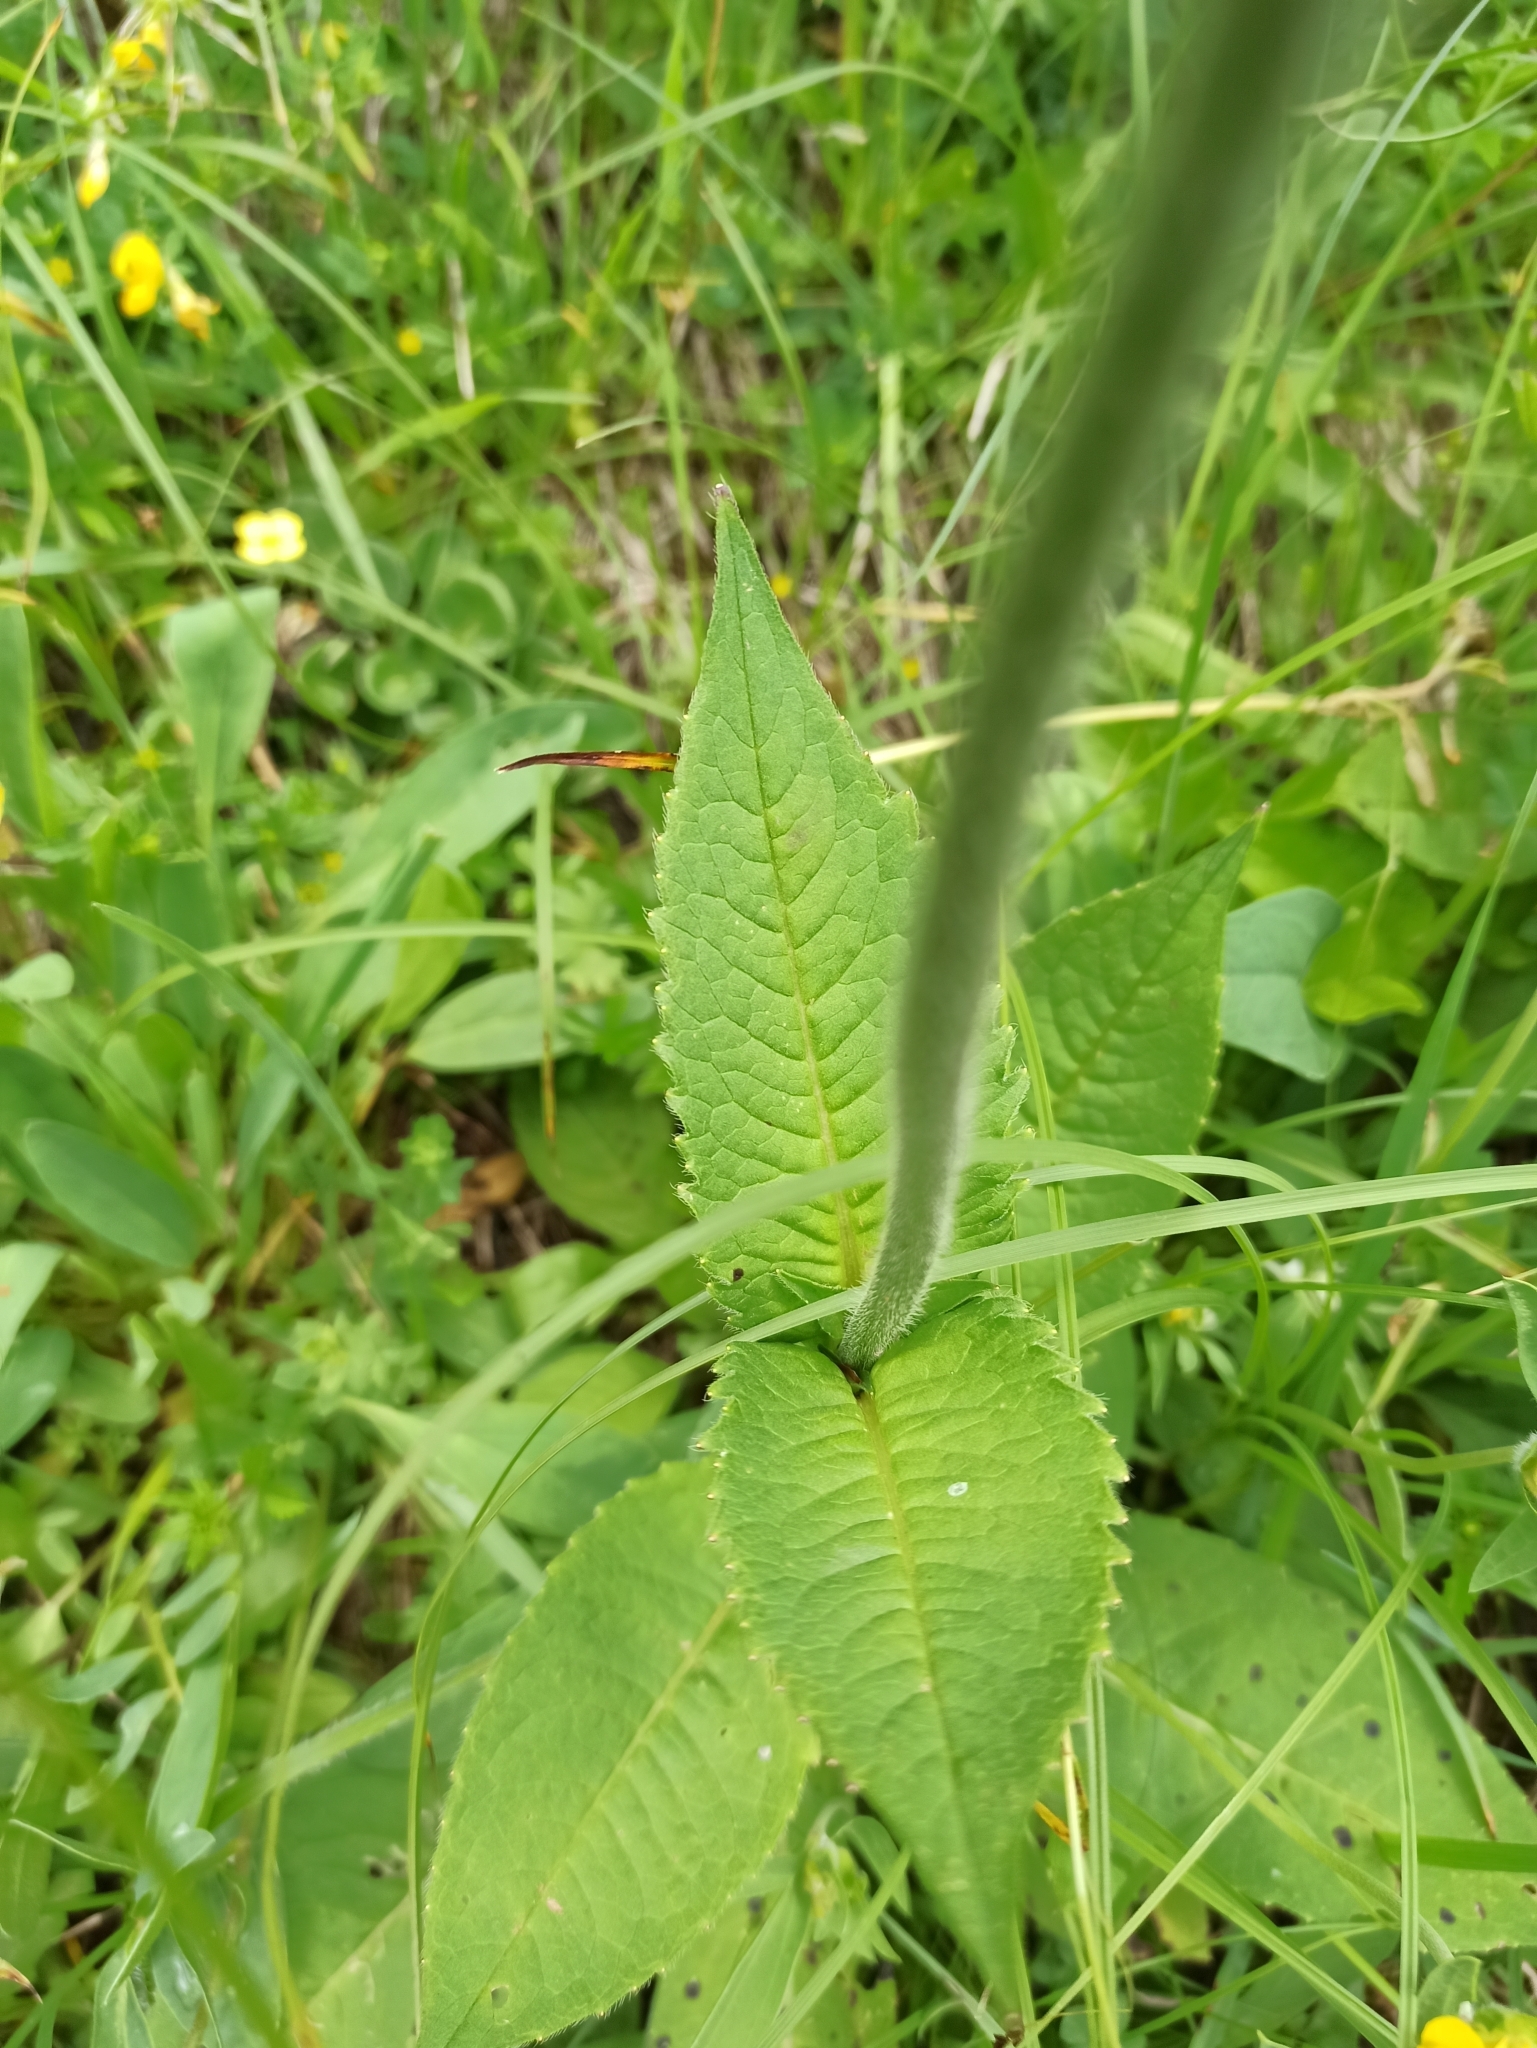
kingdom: Plantae
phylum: Tracheophyta
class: Magnoliopsida
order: Dipsacales
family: Caprifoliaceae
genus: Knautia
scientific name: Knautia dipsacifolia
